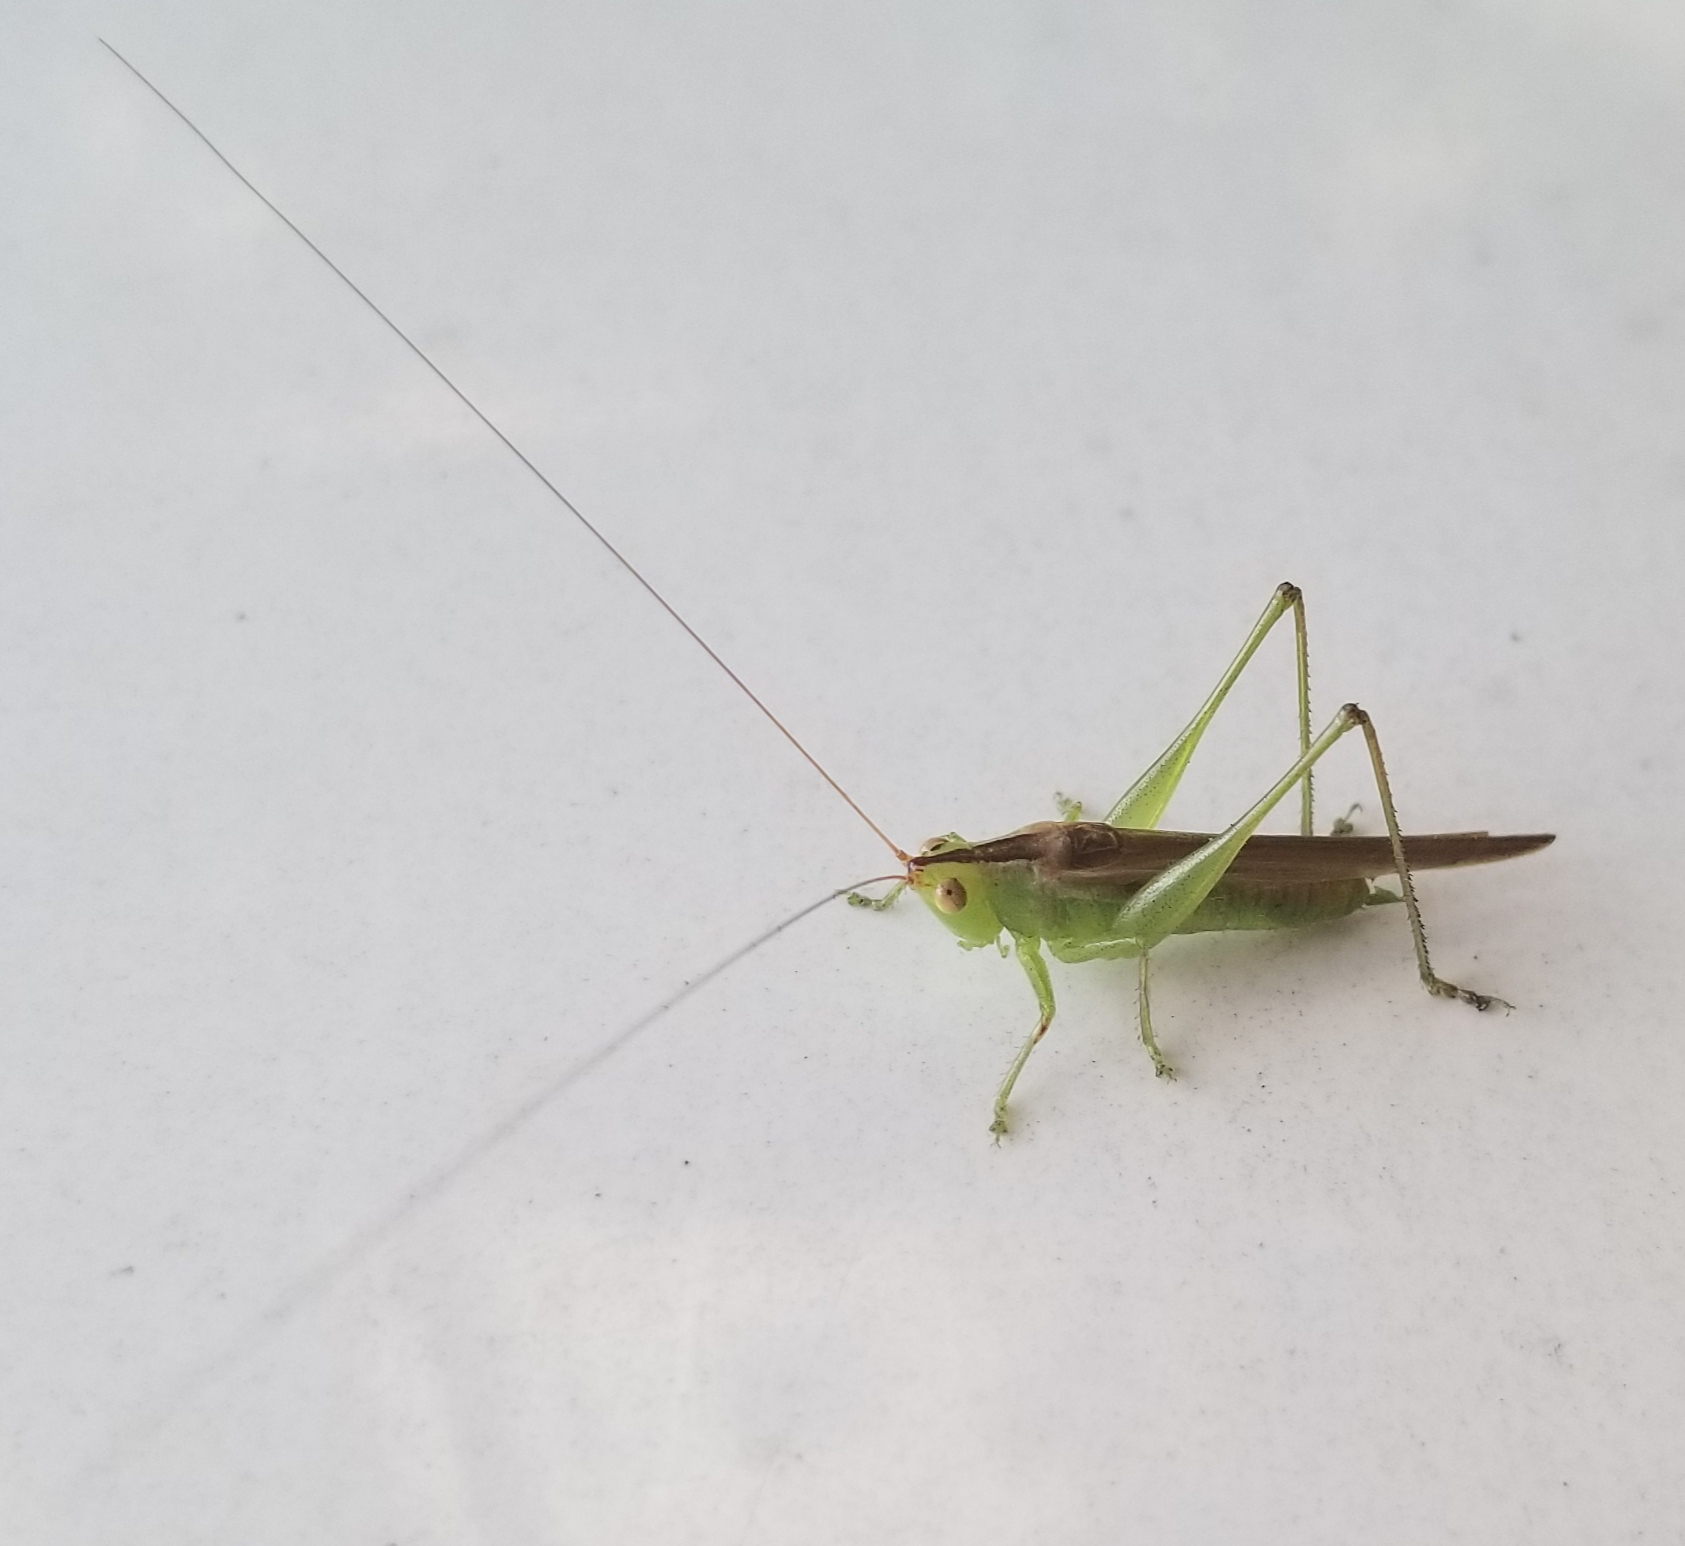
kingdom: Animalia
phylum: Arthropoda
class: Insecta
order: Orthoptera
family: Tettigoniidae
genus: Conocephalus
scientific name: Conocephalus fasciatus
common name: Slender meadow katydid
